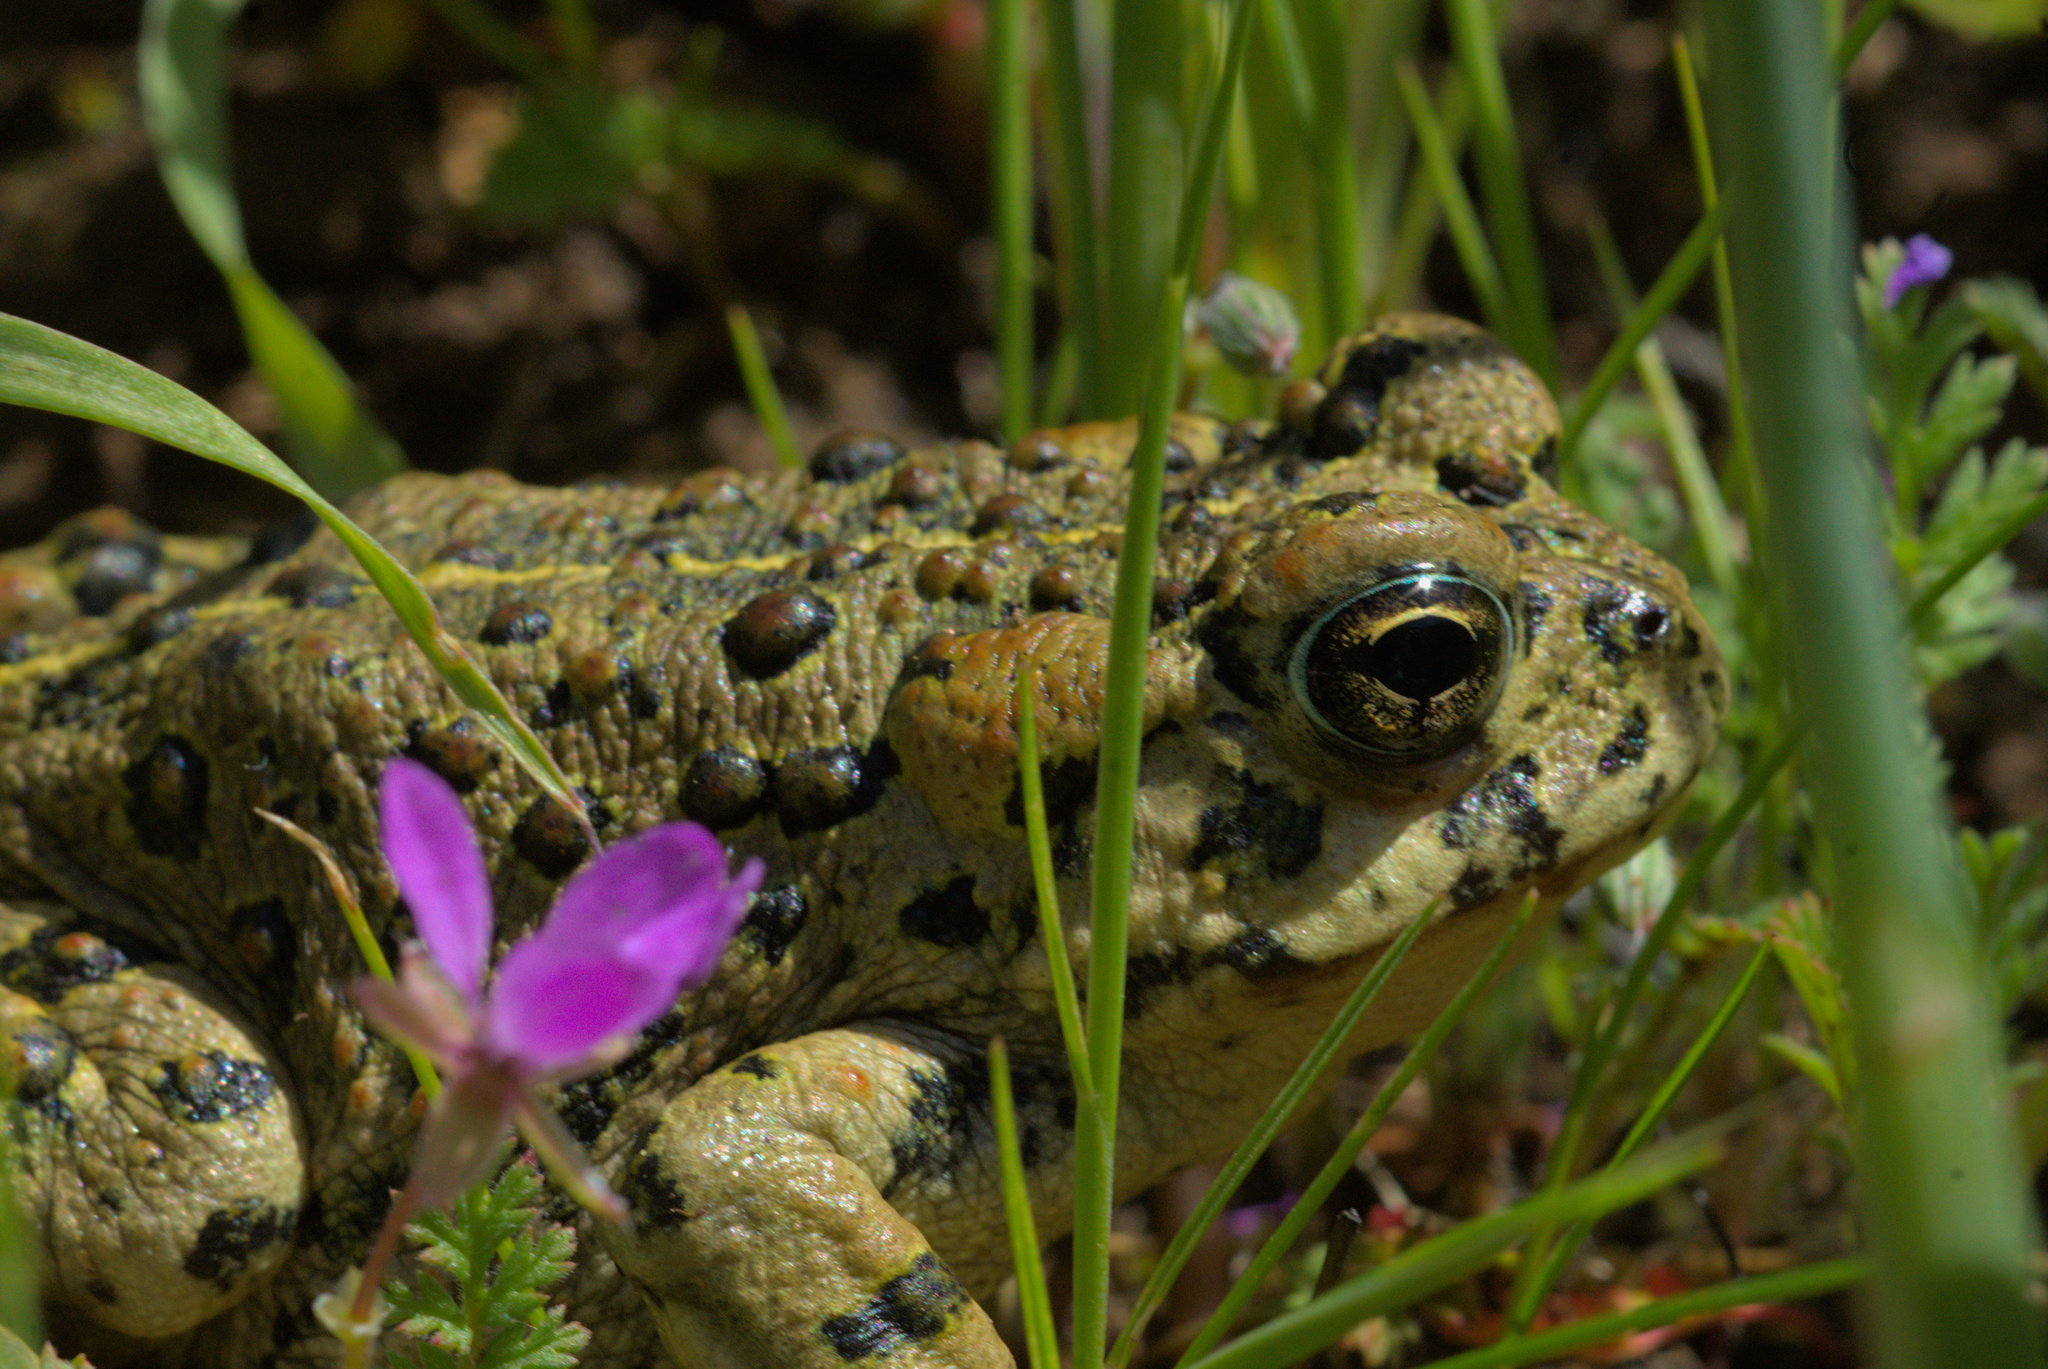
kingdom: Animalia
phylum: Chordata
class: Amphibia
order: Anura
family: Bufonidae
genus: Anaxyrus
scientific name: Anaxyrus boreas
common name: Western toad
